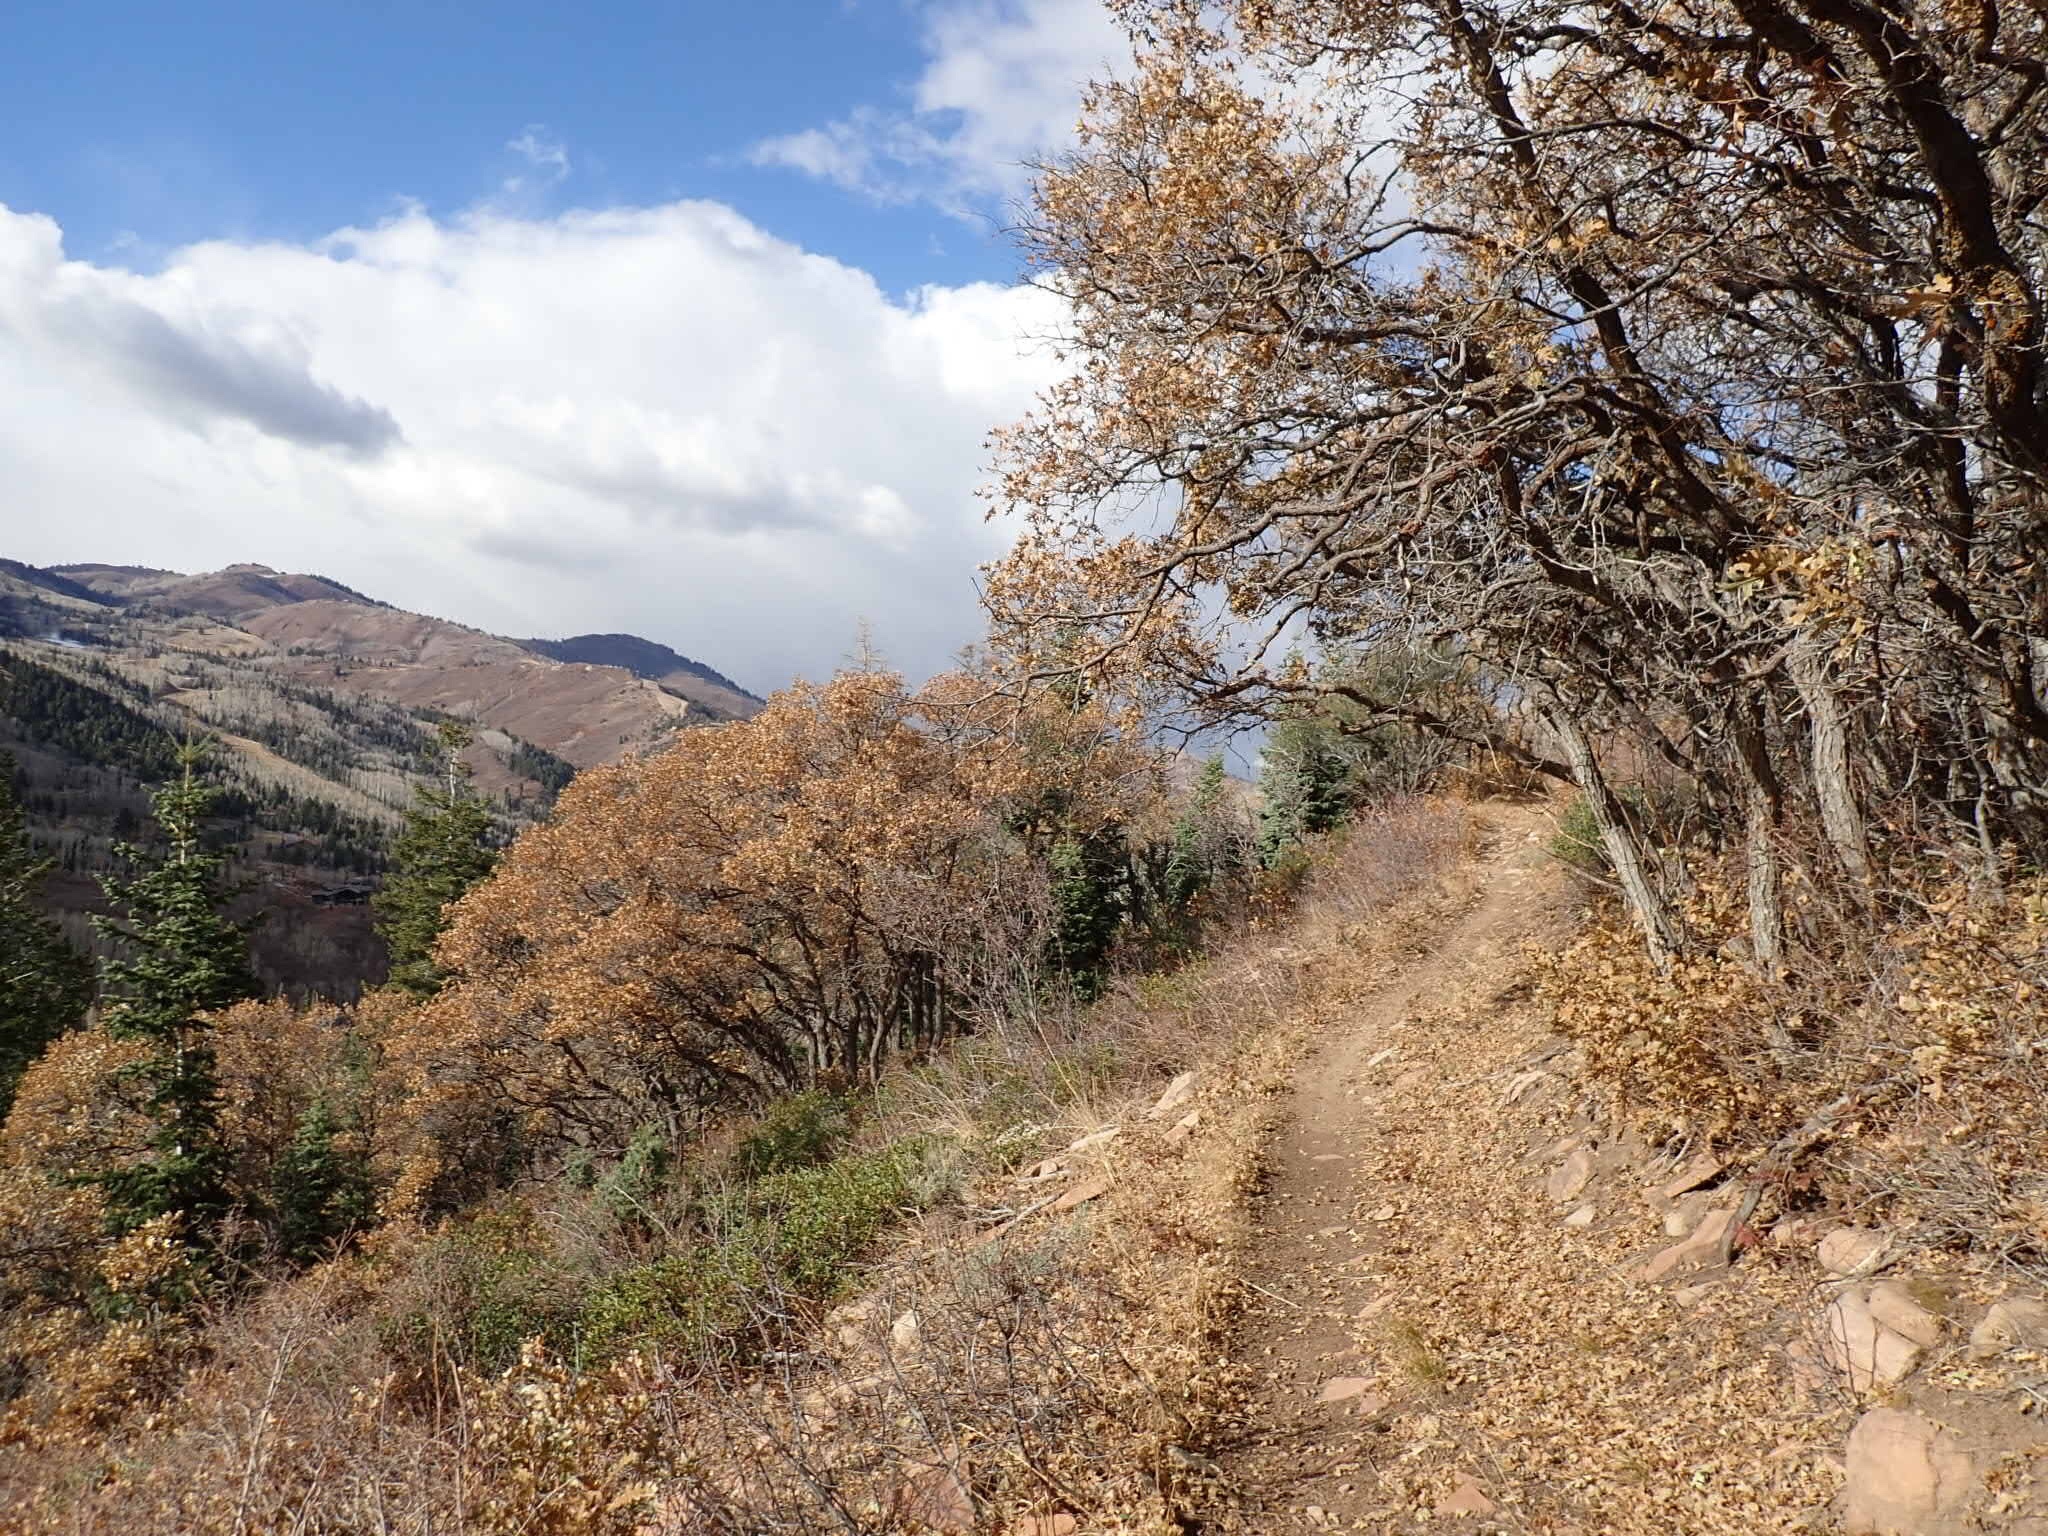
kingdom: Plantae
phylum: Tracheophyta
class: Magnoliopsida
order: Fagales
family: Fagaceae
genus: Quercus
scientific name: Quercus gambelii
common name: Gambel oak
